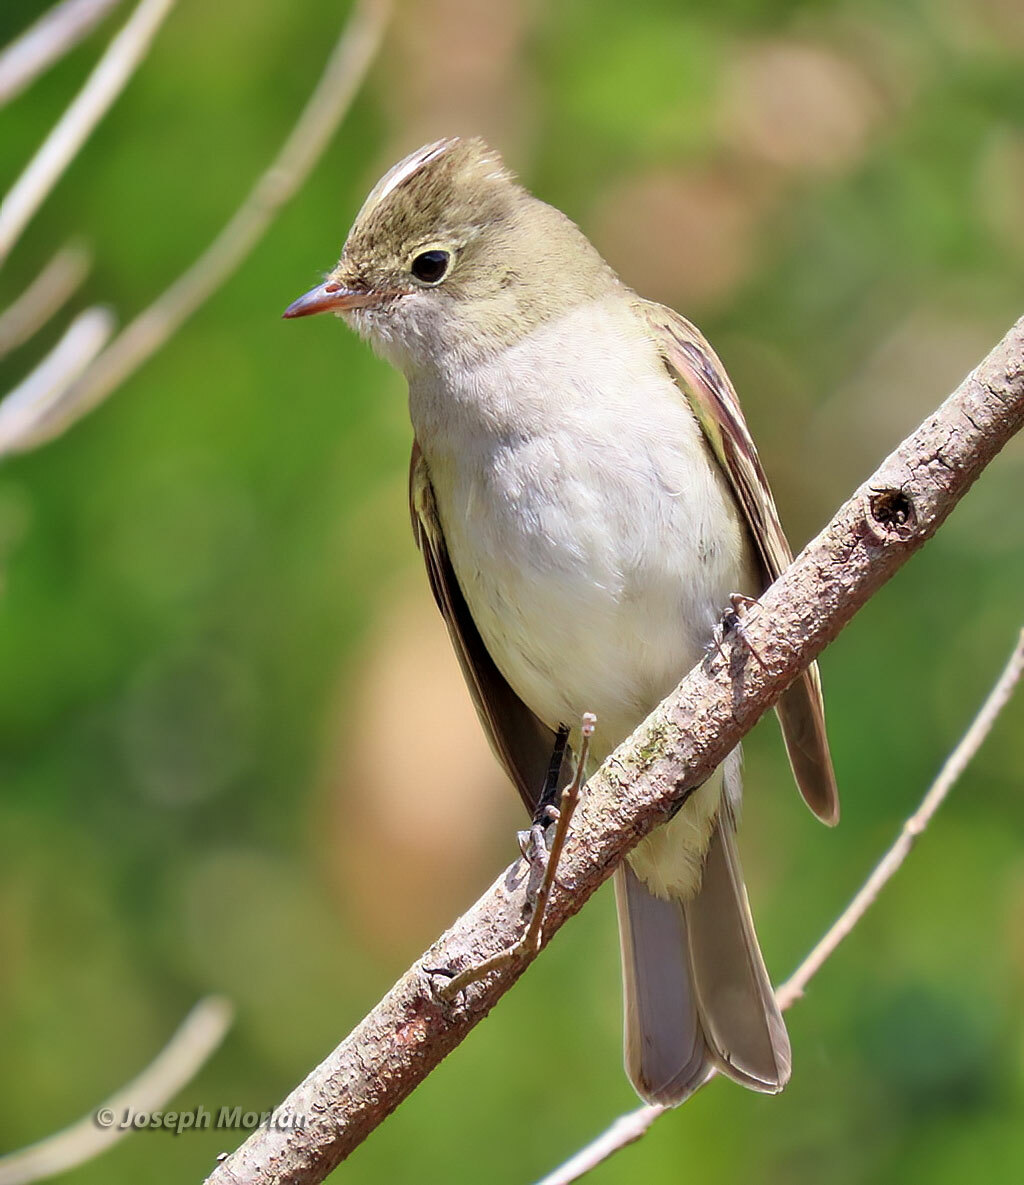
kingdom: Animalia
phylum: Chordata
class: Aves
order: Passeriformes
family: Tyrannidae
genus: Elaenia
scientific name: Elaenia albiceps
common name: White-crested elaenia
